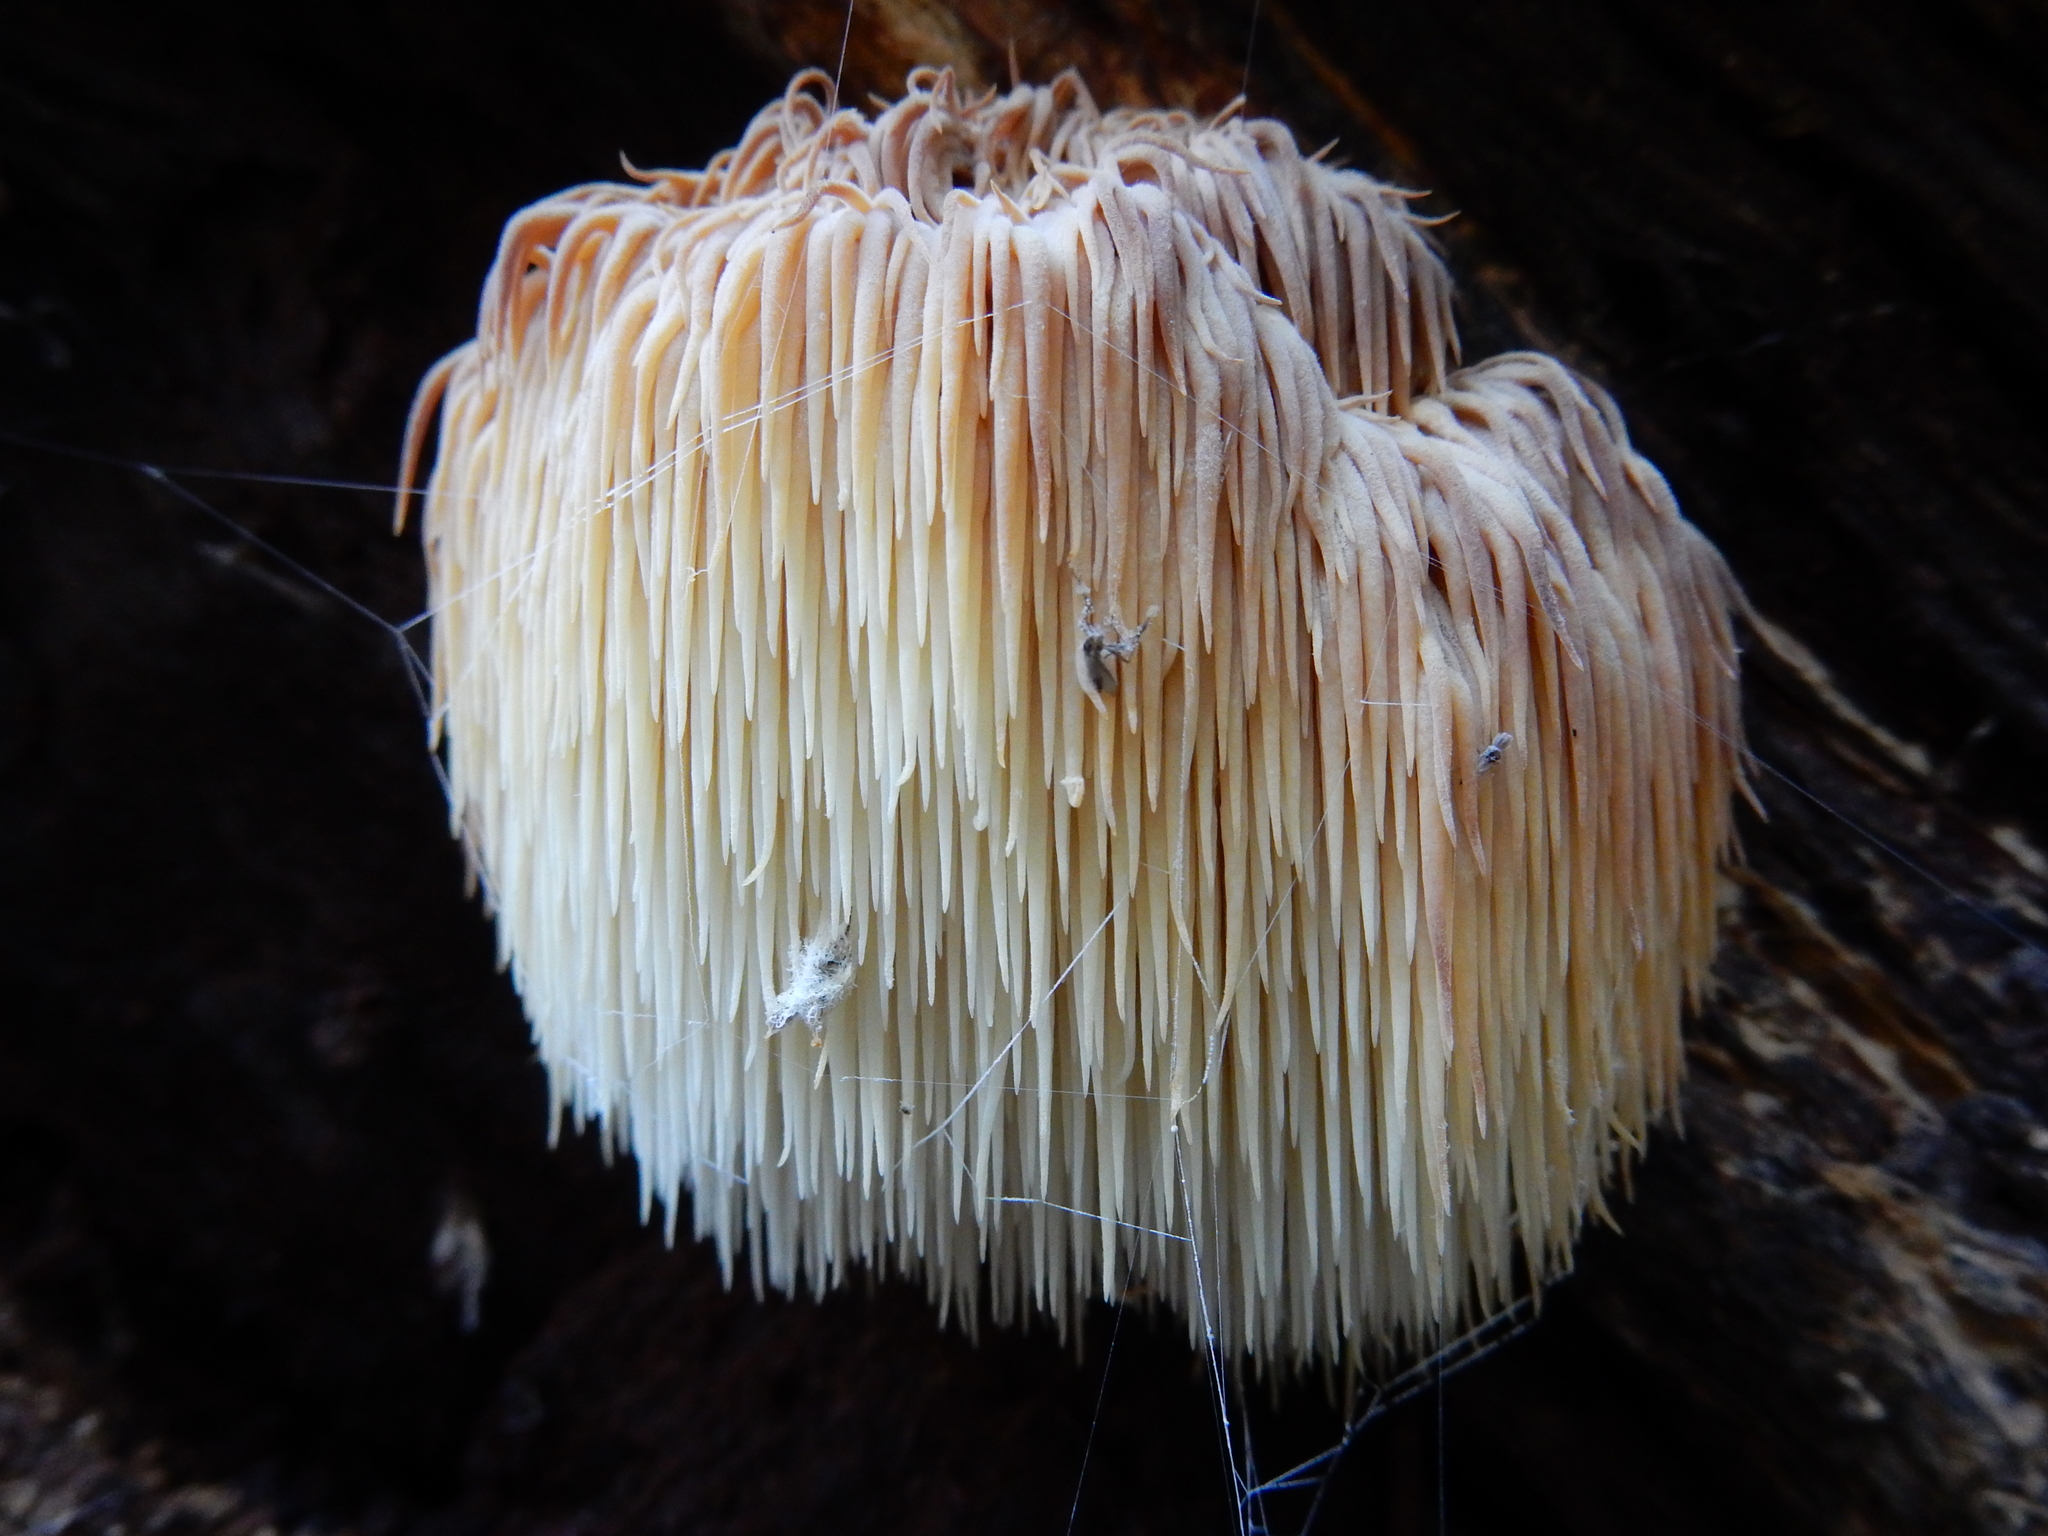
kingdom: Fungi
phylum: Basidiomycota
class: Agaricomycetes
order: Russulales
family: Hericiaceae
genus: Hericium
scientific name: Hericium novae-zealandiae
